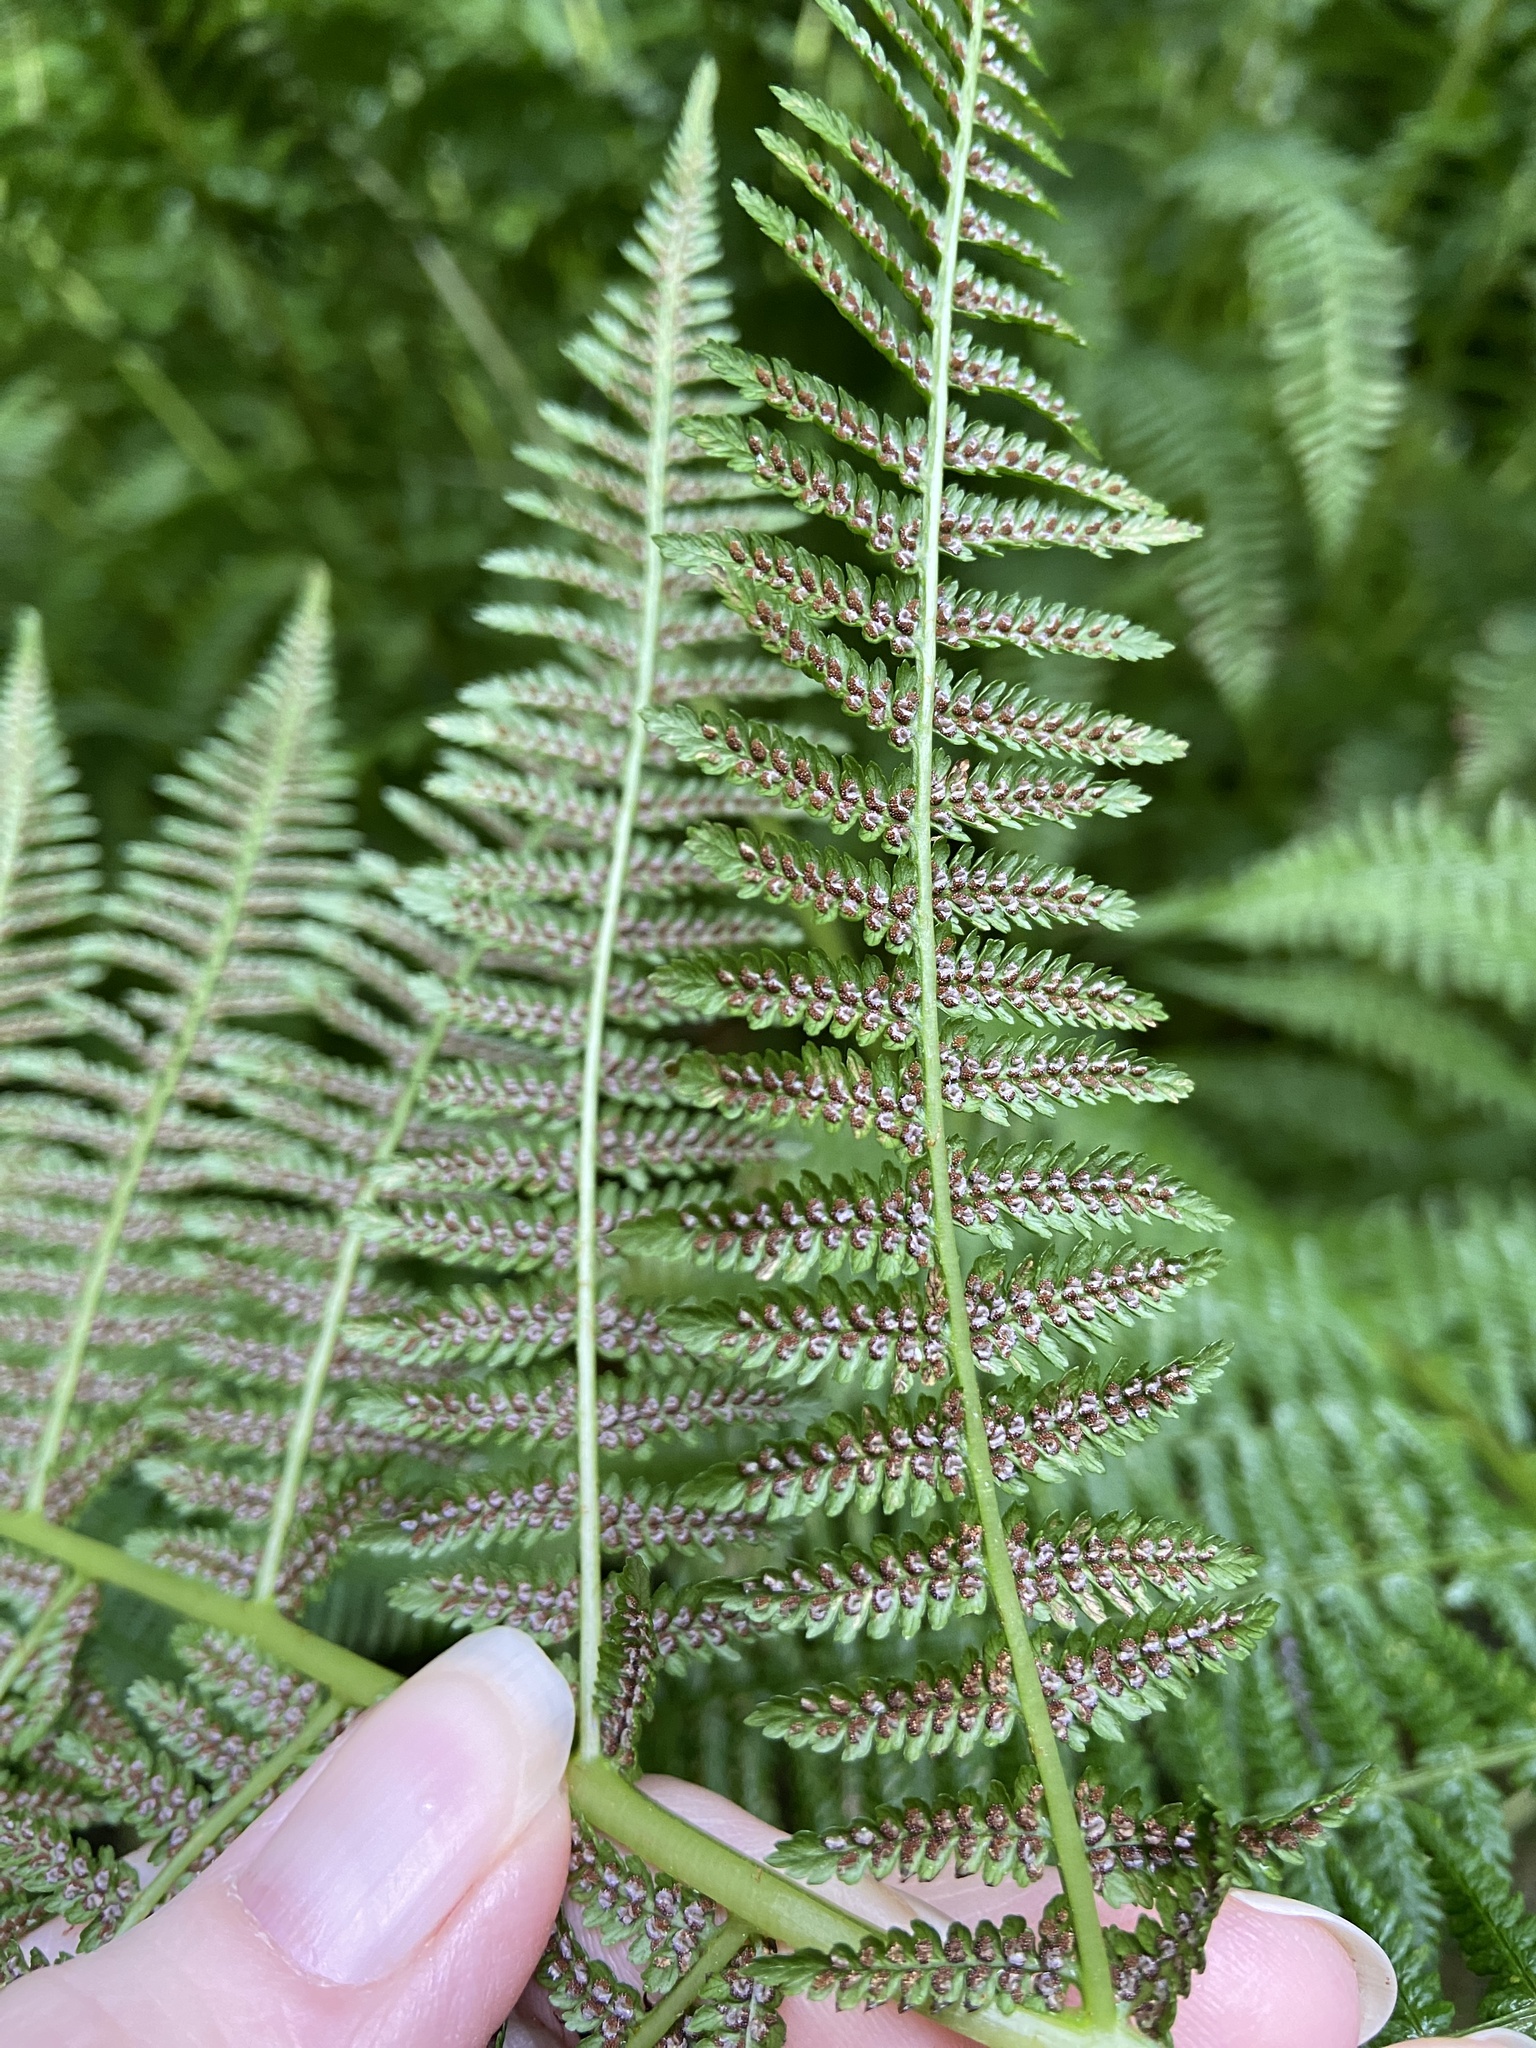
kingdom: Plantae
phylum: Tracheophyta
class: Polypodiopsida
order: Polypodiales
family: Athyriaceae
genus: Athyrium
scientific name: Athyrium filix-femina
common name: Lady fern
